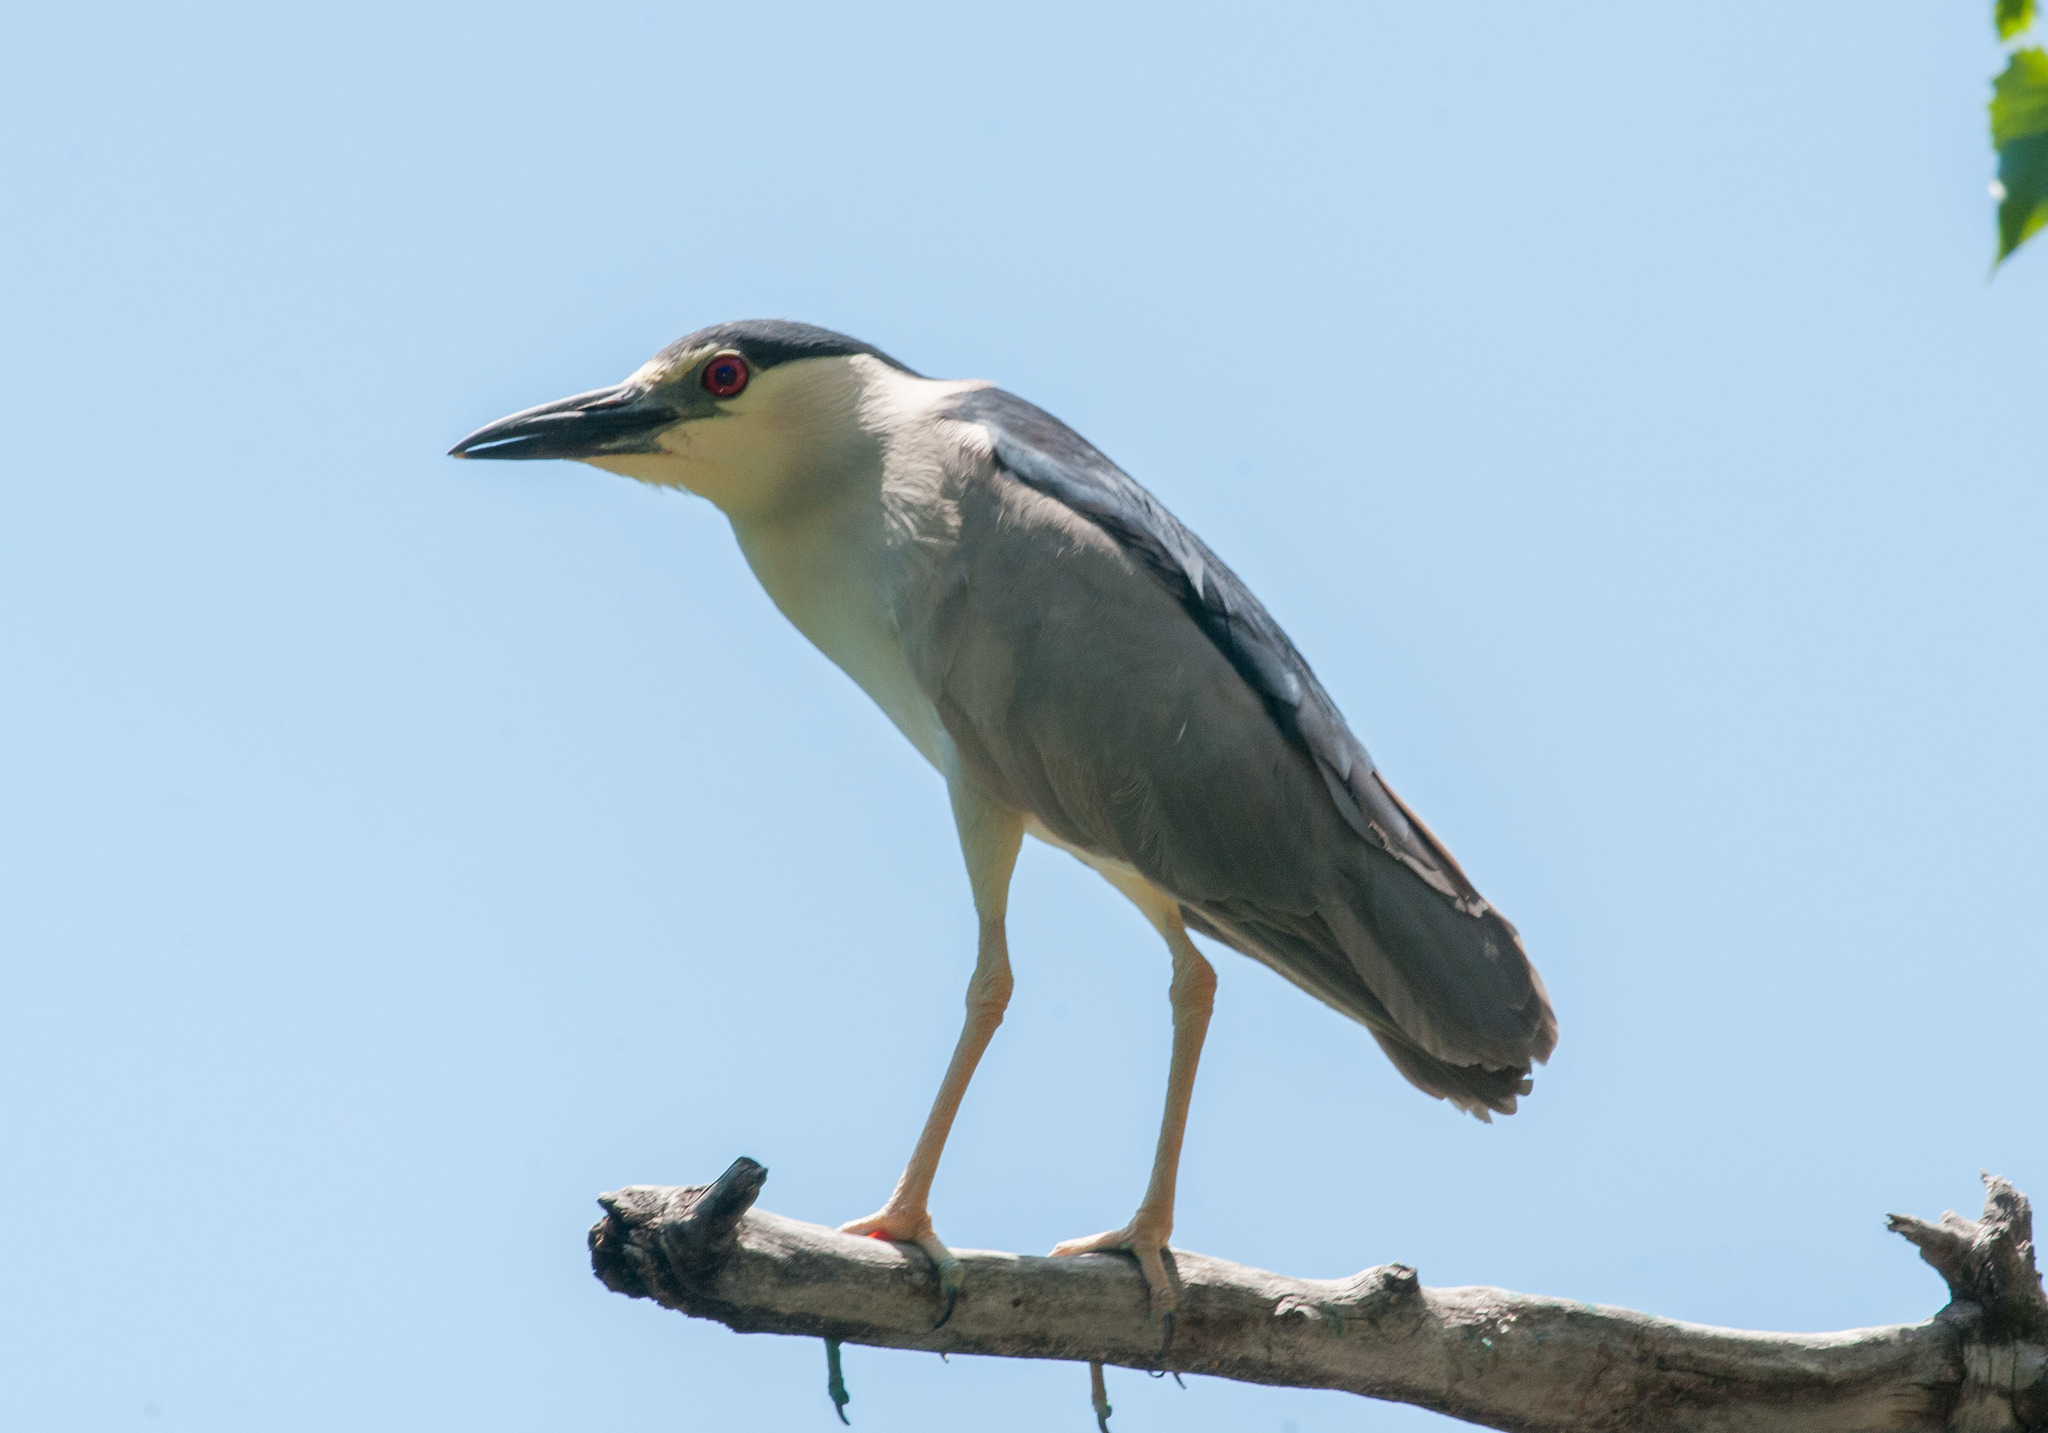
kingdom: Animalia
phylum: Chordata
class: Aves
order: Pelecaniformes
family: Ardeidae
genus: Nycticorax
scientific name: Nycticorax nycticorax
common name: Black-crowned night heron
